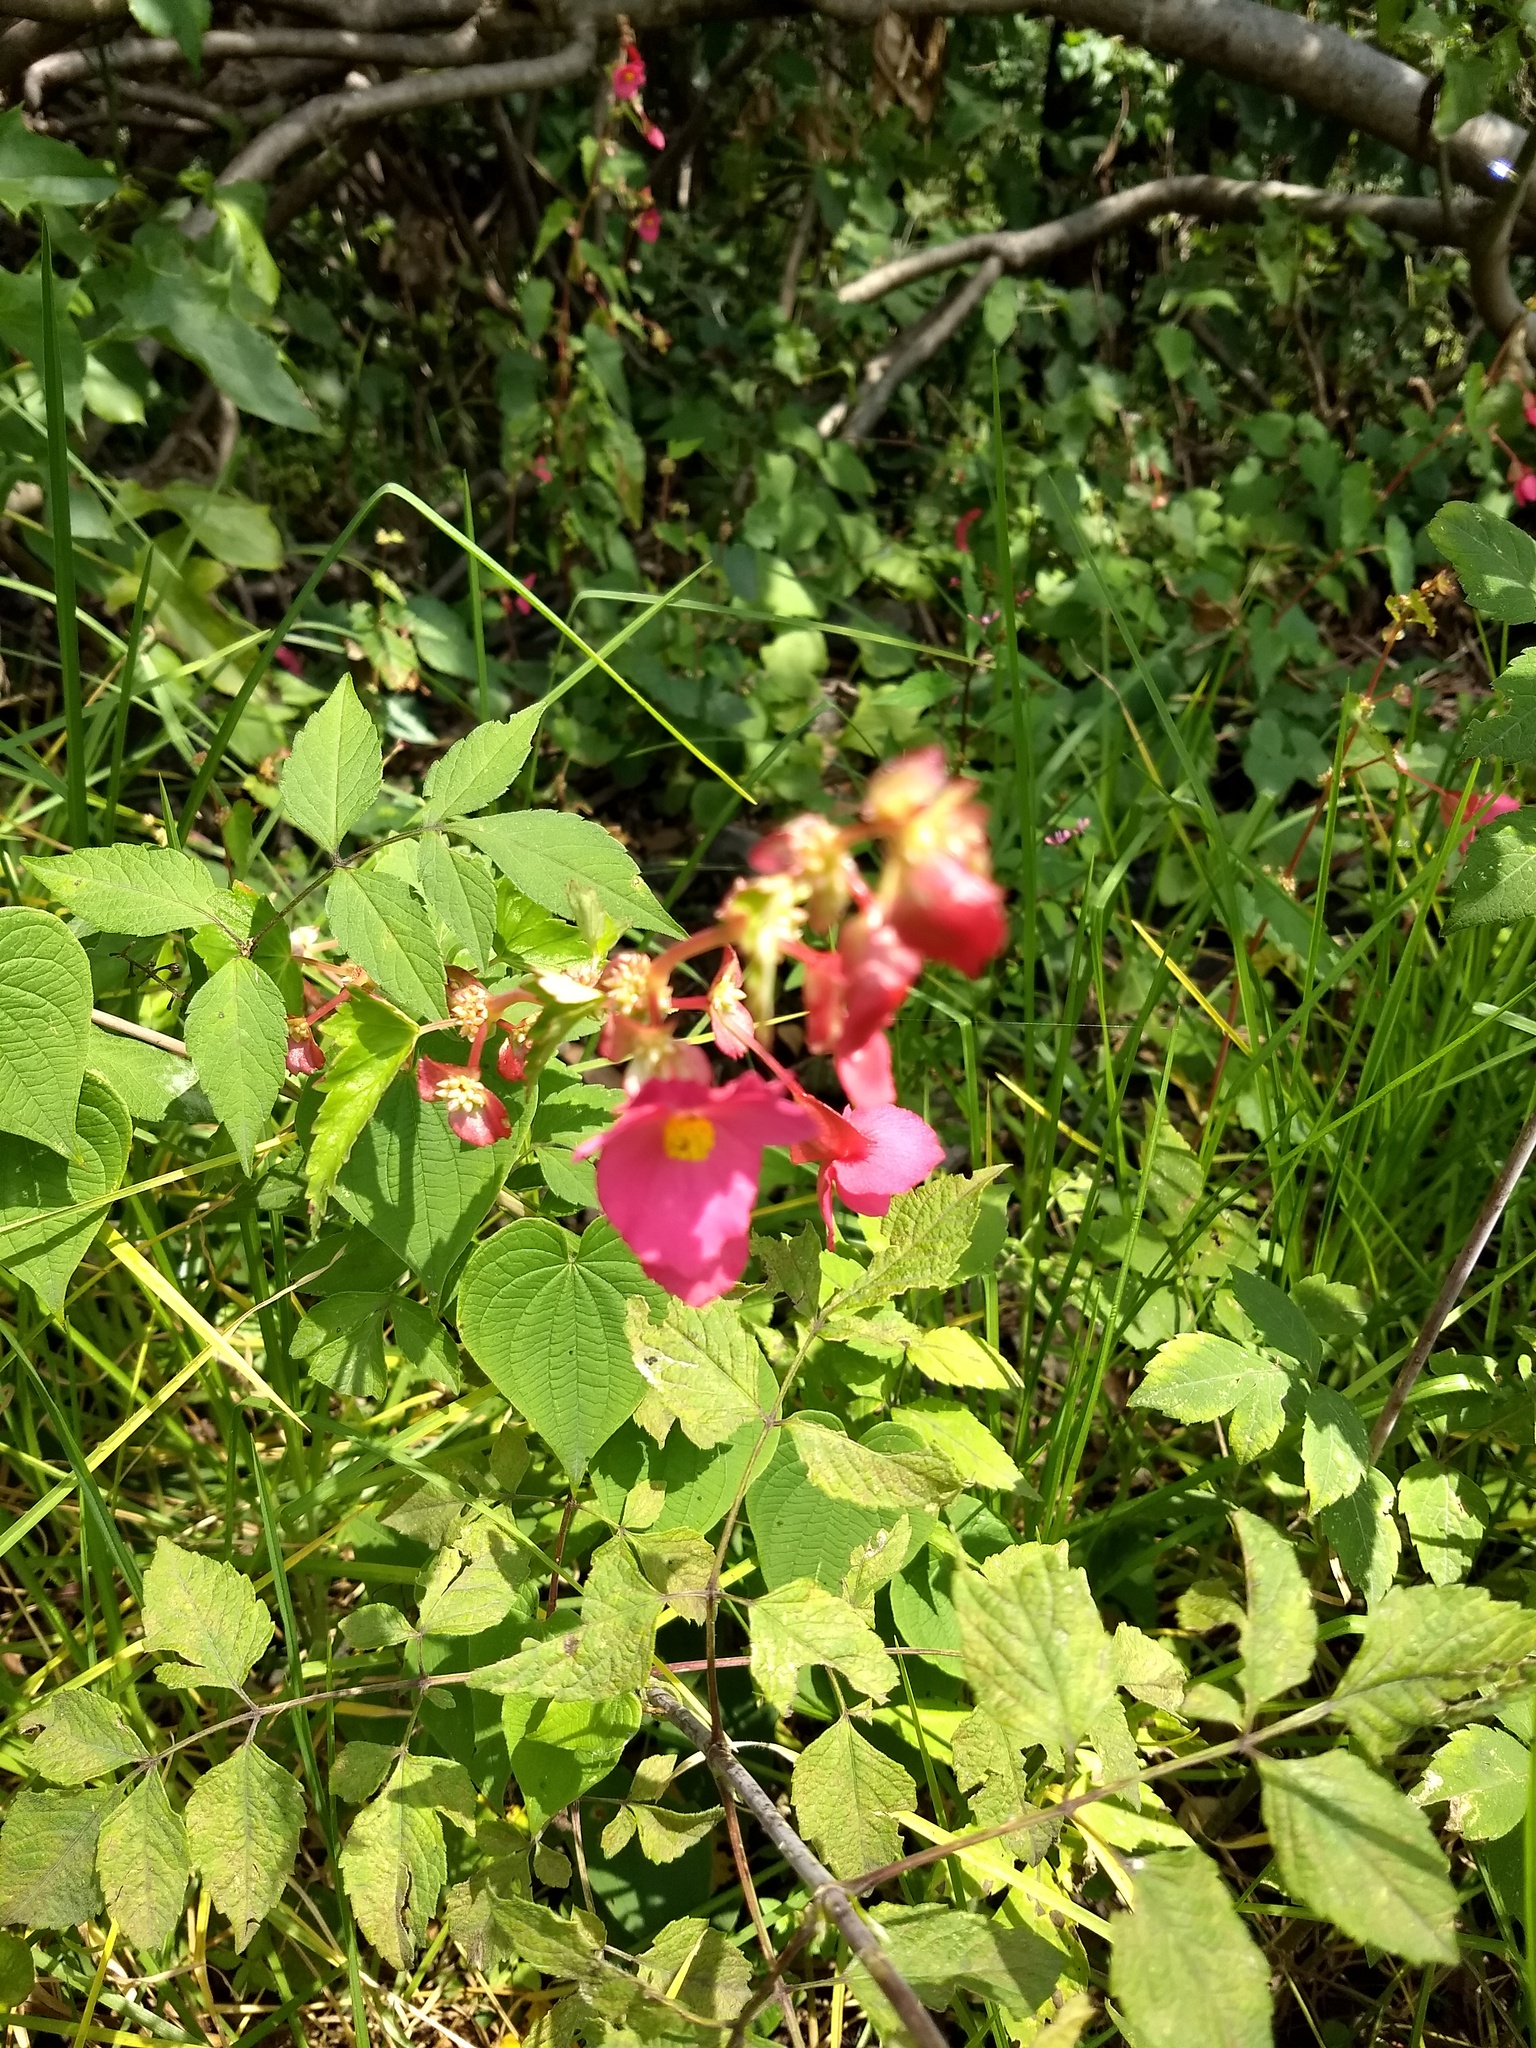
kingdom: Plantae
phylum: Tracheophyta
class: Magnoliopsida
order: Cucurbitales
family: Begoniaceae
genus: Begonia
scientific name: Begonia gracilis
